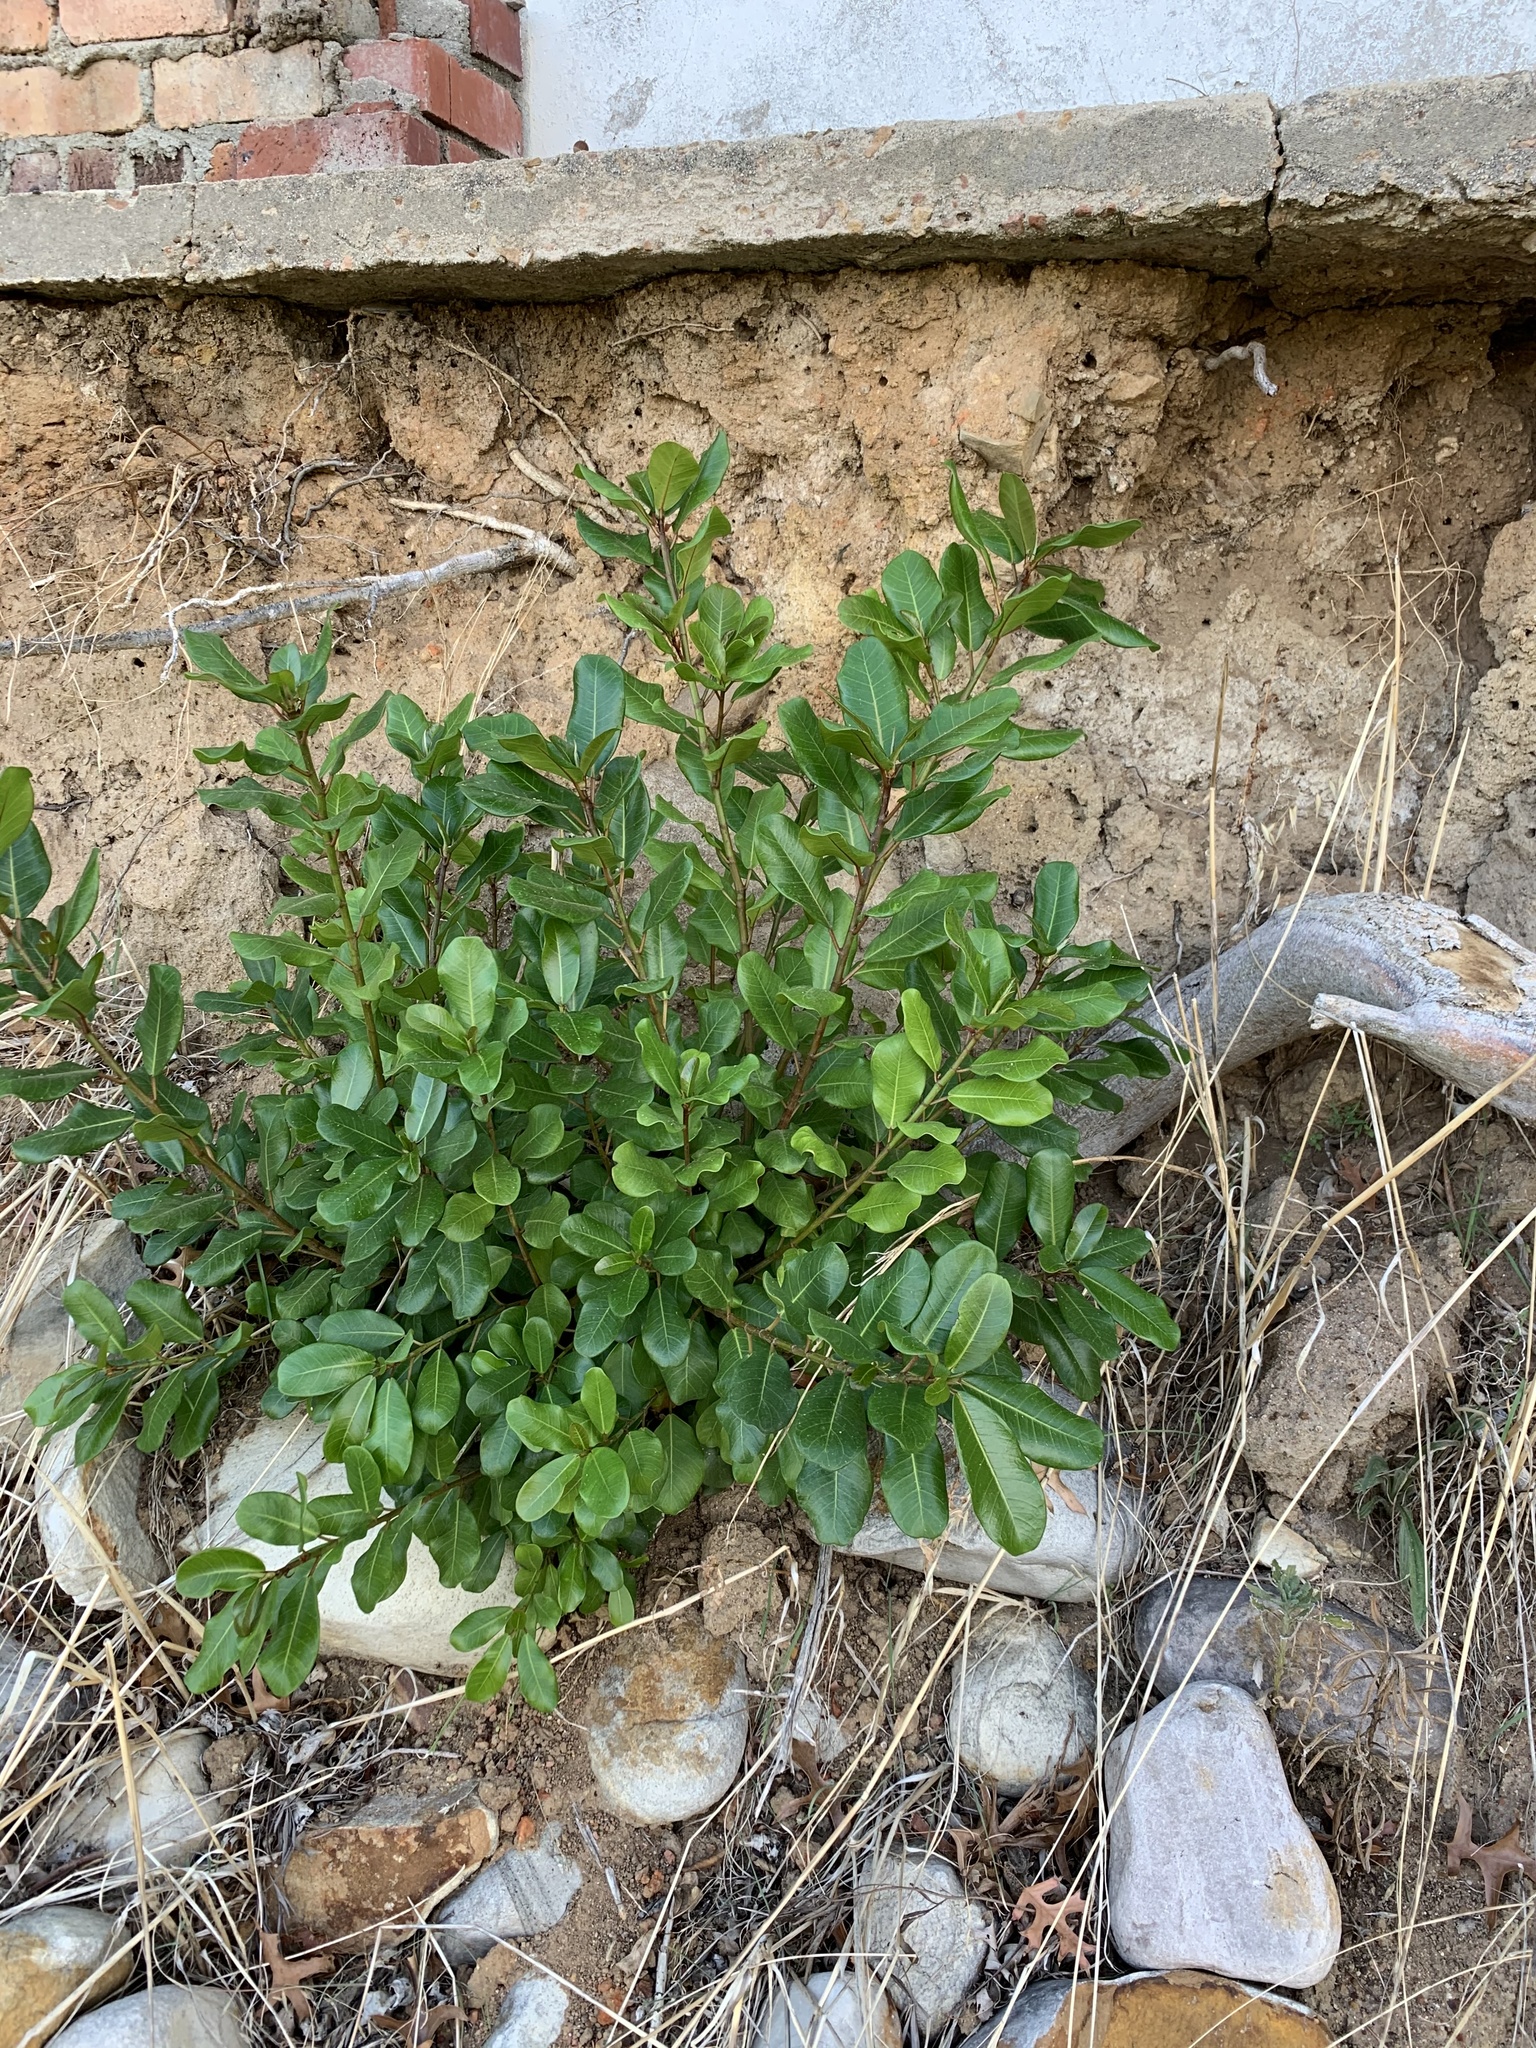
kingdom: Plantae
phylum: Tracheophyta
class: Magnoliopsida
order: Rosales
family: Moraceae
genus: Ficus
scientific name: Ficus thonningii
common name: Fig
